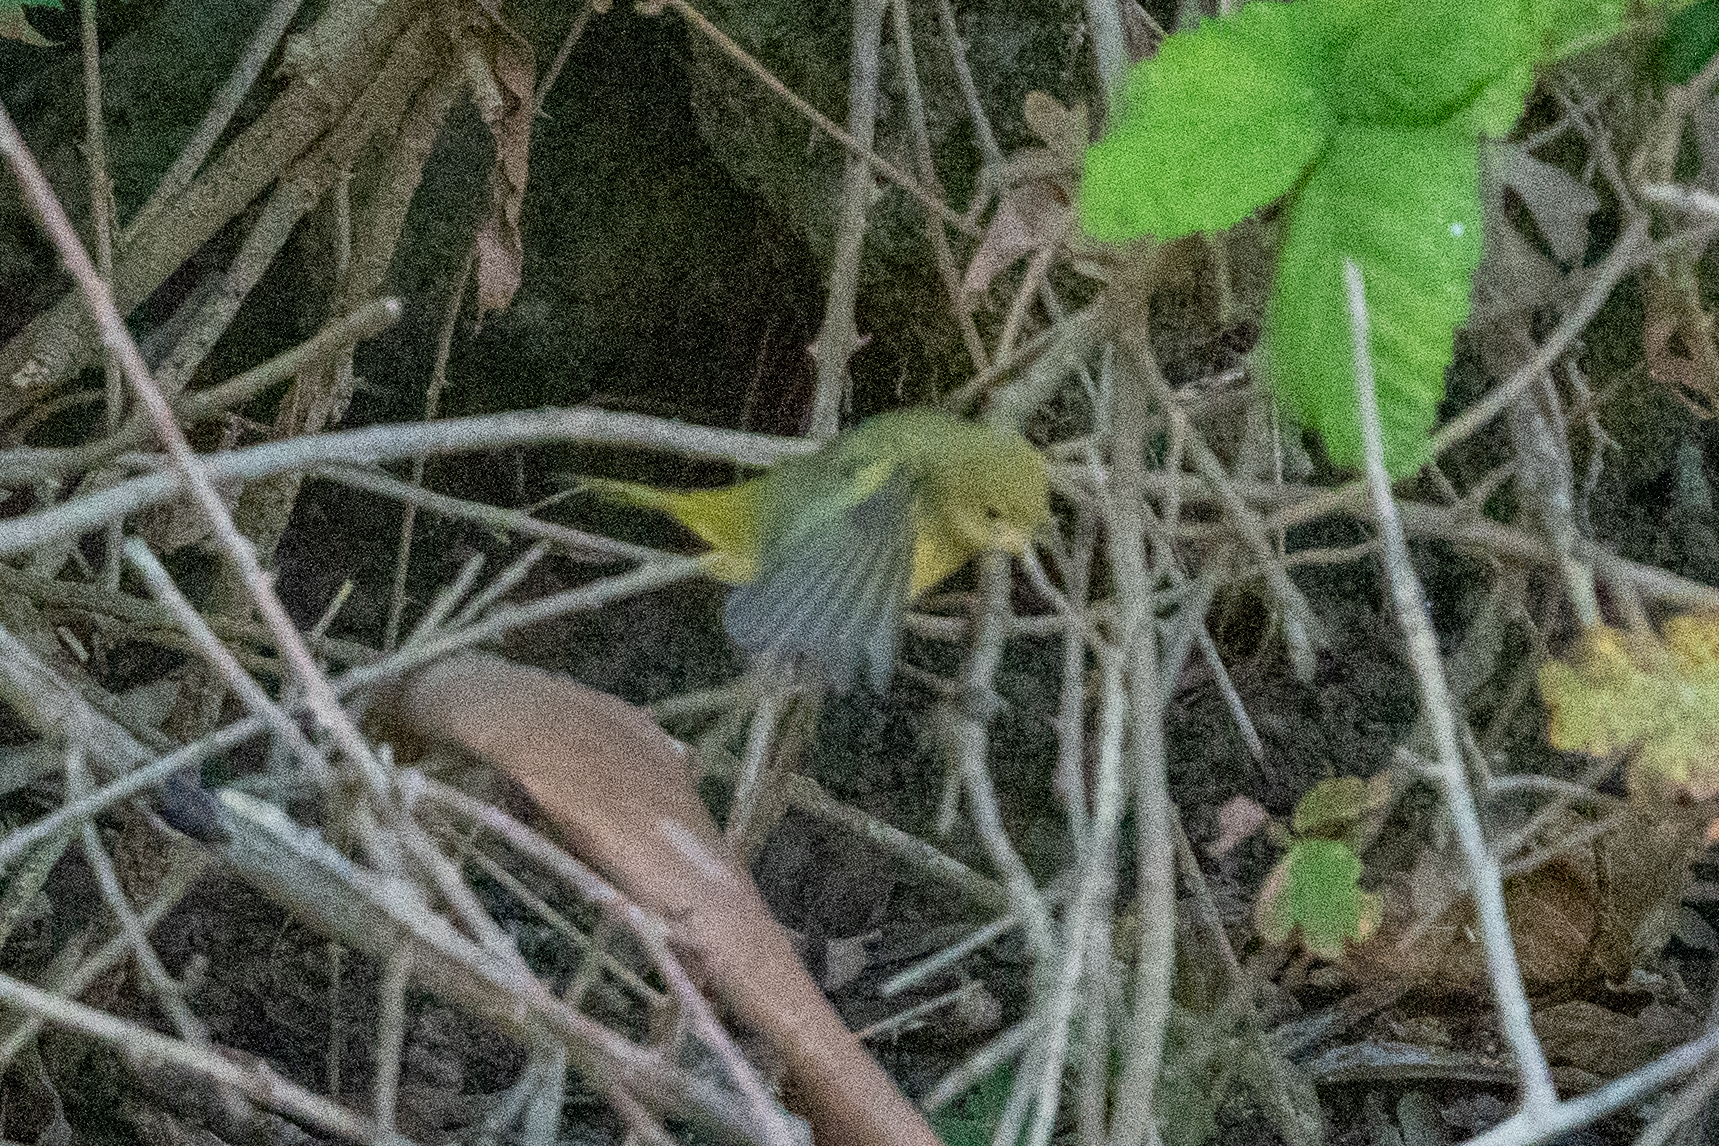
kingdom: Animalia
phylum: Chordata
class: Aves
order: Passeriformes
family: Parulidae
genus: Setophaga
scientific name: Setophaga petechia
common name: Yellow warbler
